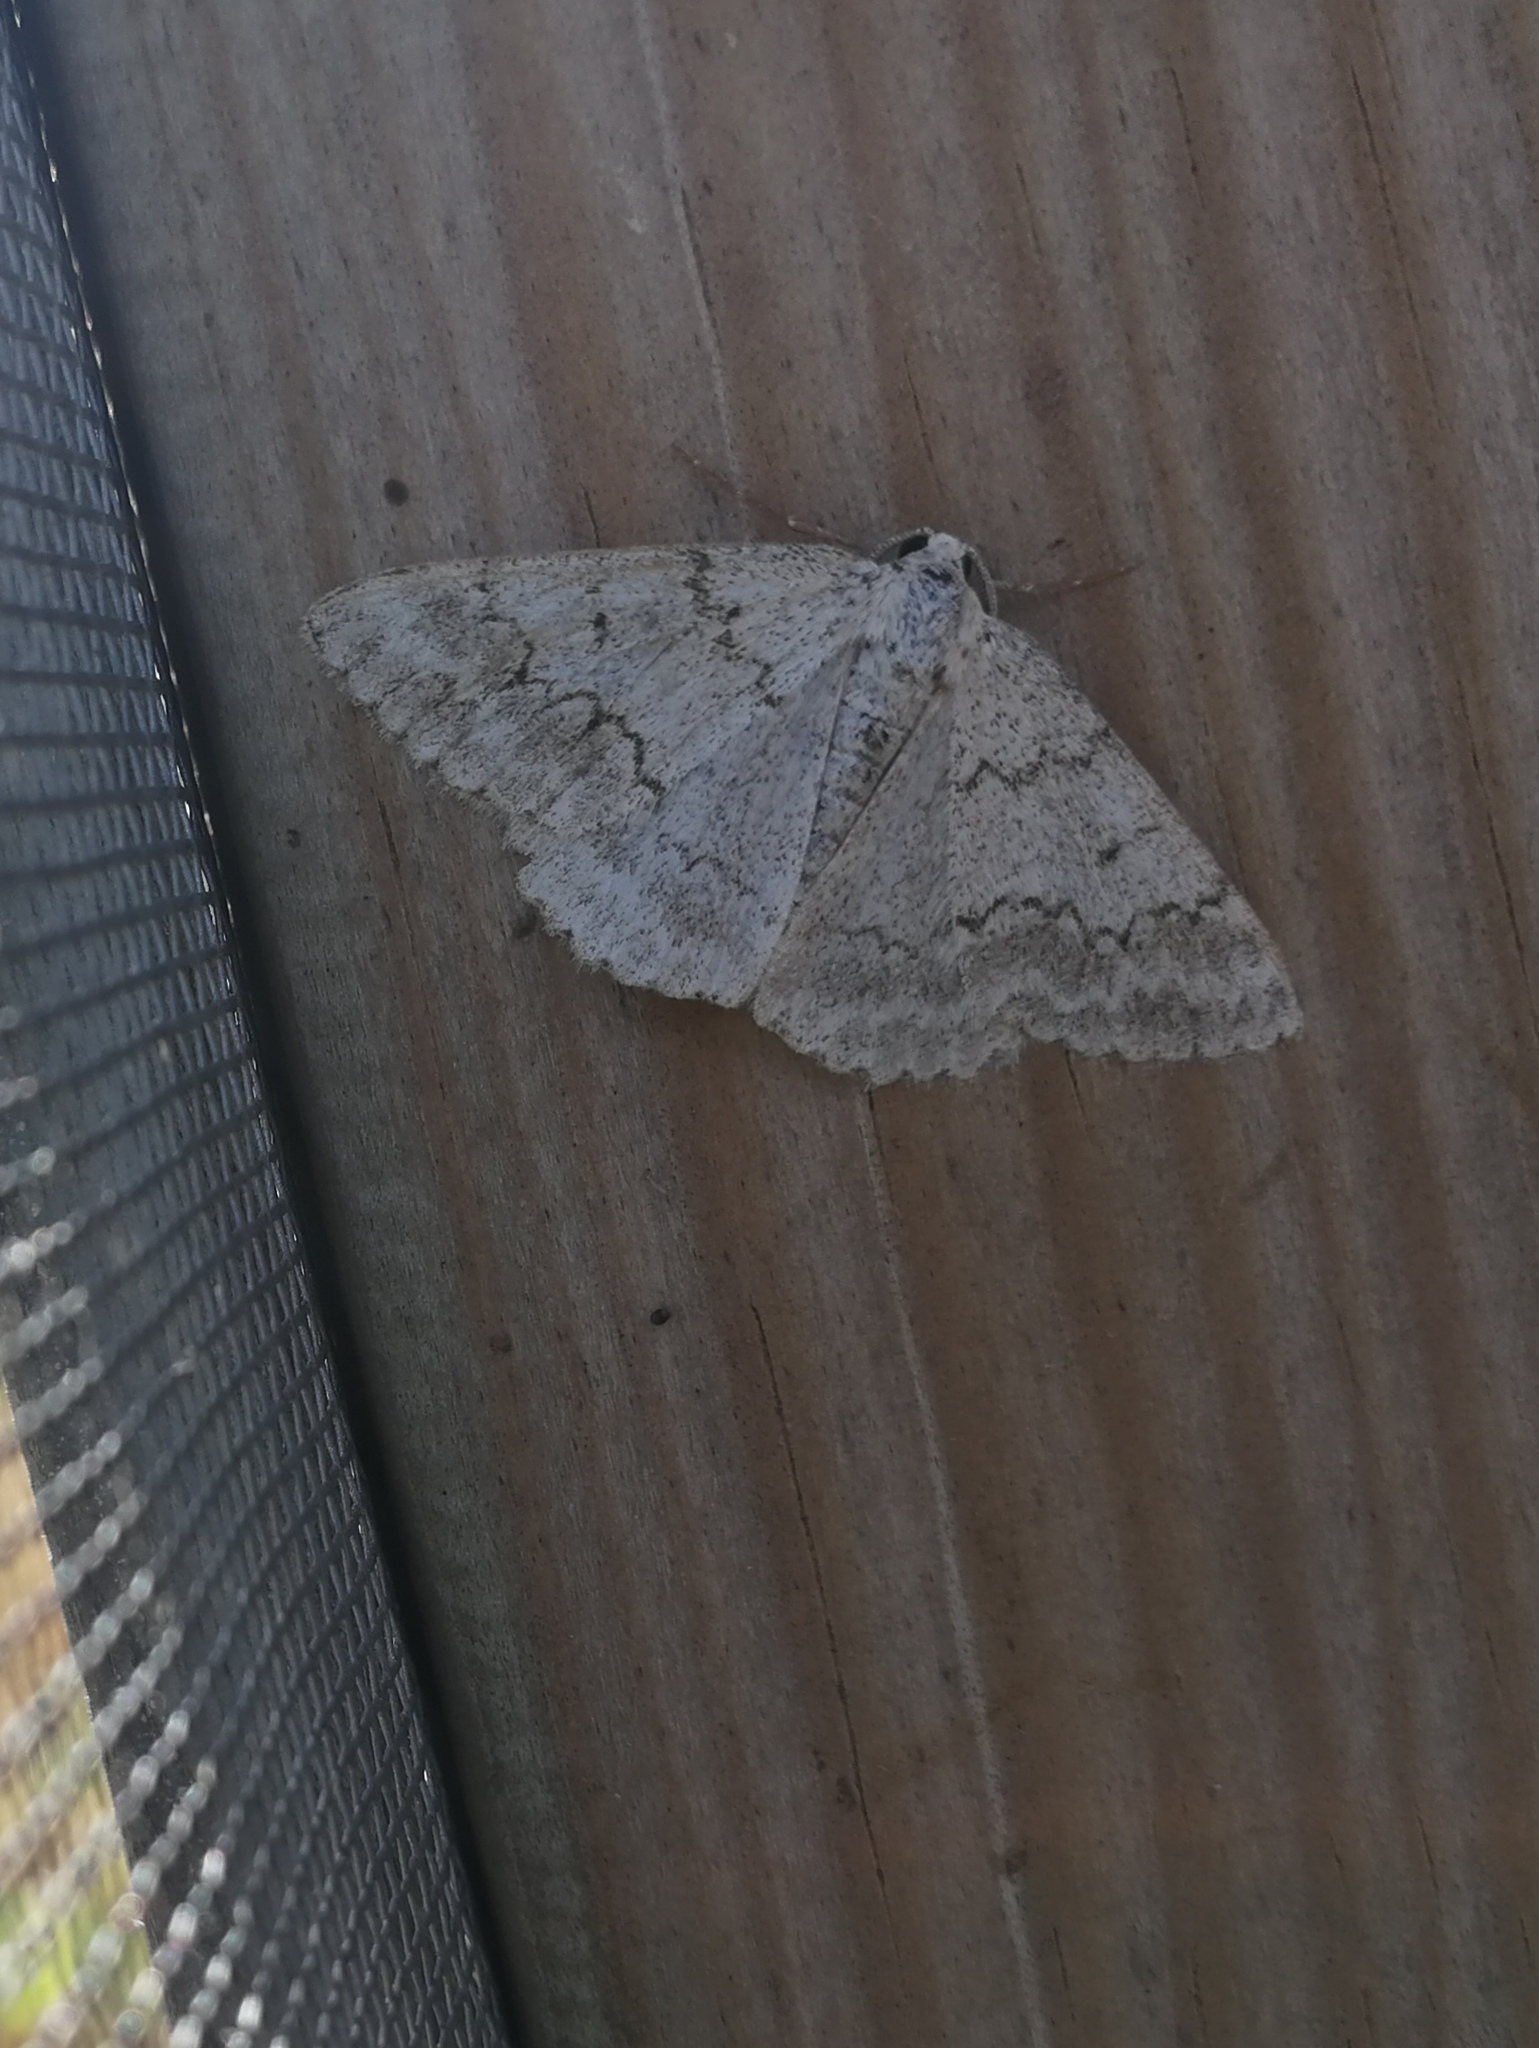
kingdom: Animalia
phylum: Arthropoda
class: Insecta
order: Lepidoptera
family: Geometridae
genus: Pseudoterpna
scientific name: Pseudoterpna coronillaria
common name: Jersey emerald
